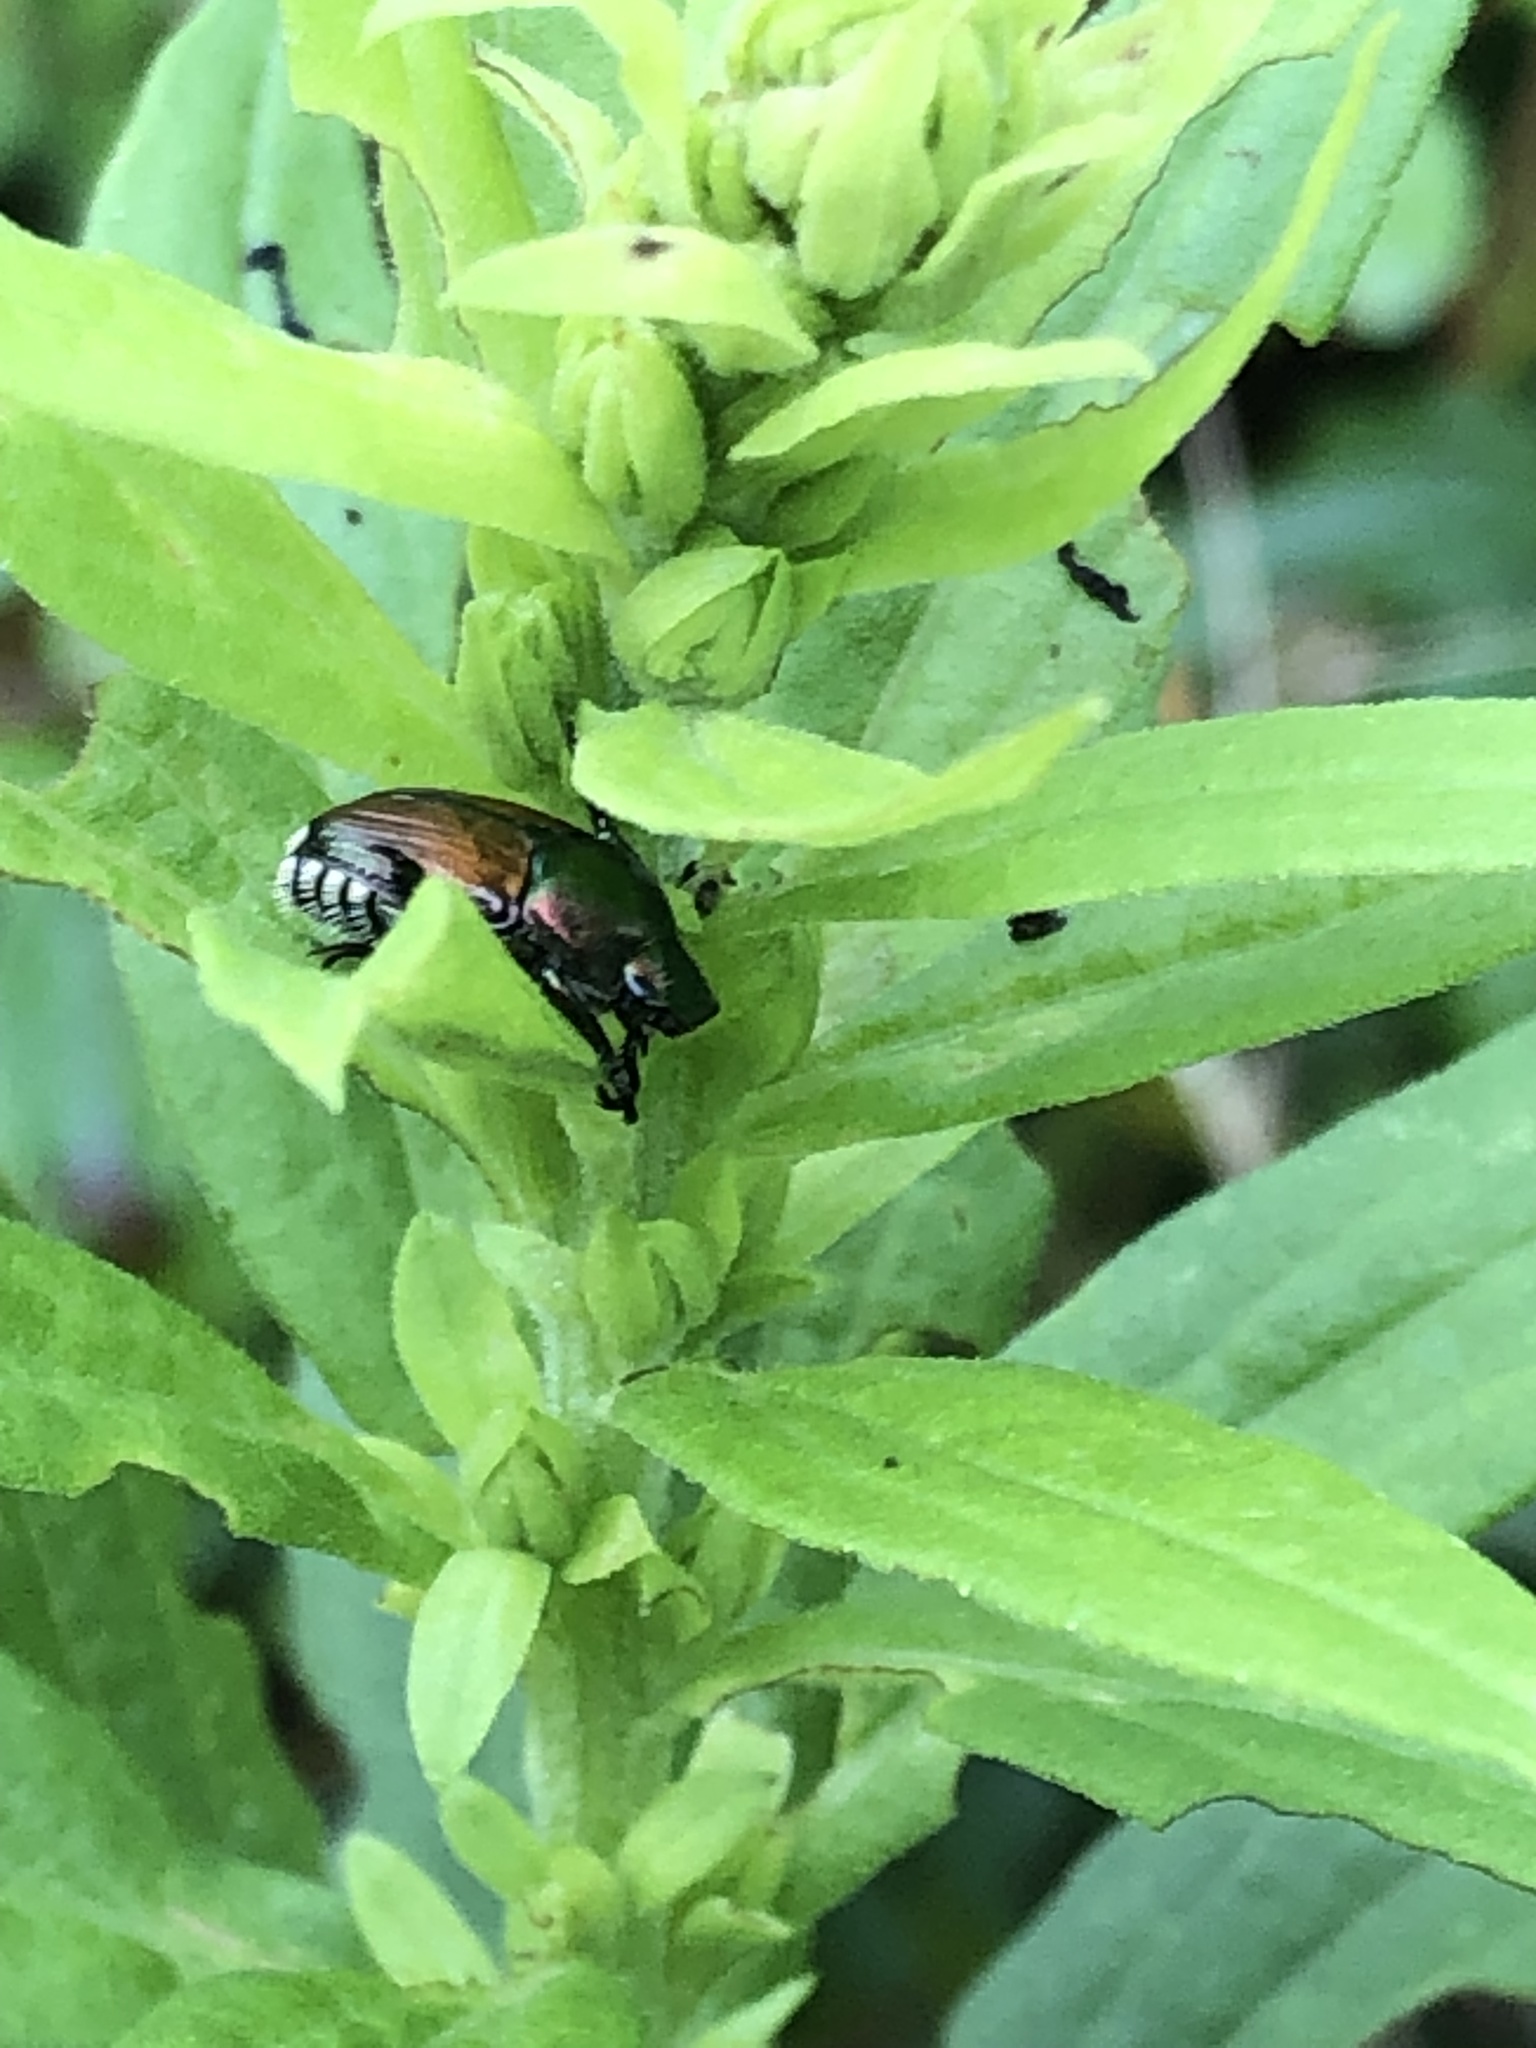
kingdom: Animalia
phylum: Arthropoda
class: Insecta
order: Coleoptera
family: Scarabaeidae
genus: Popillia
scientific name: Popillia japonica
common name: Japanese beetle
